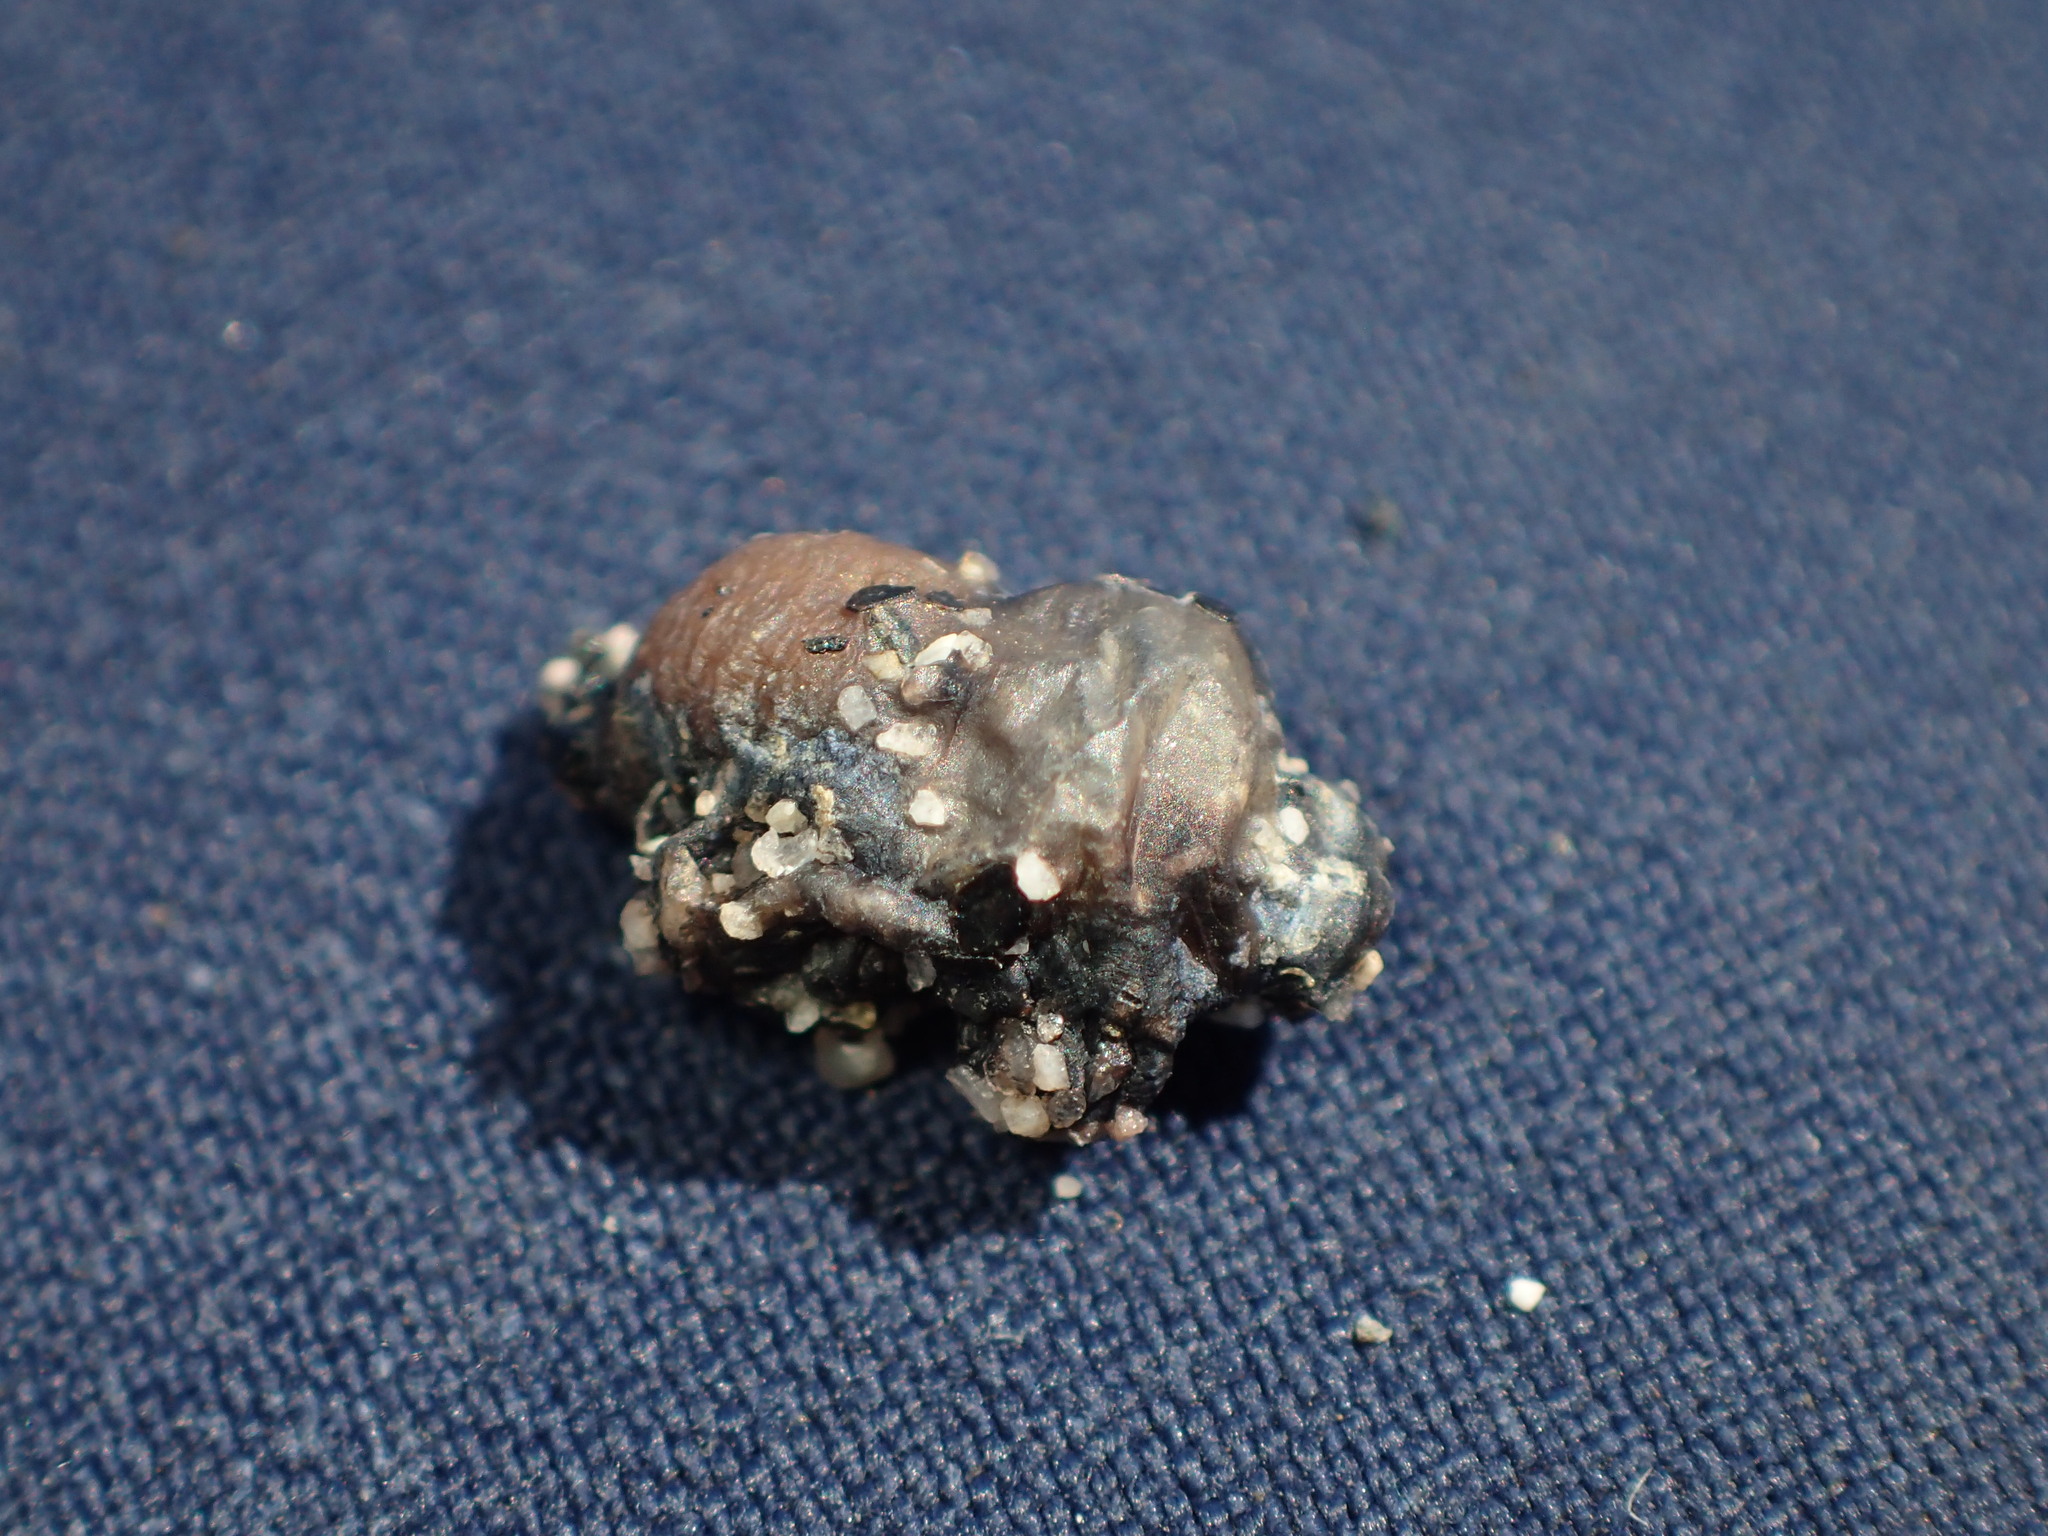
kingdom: Animalia
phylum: Mollusca
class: Gastropoda
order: Nudibranchia
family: Glaucidae
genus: Glaucus
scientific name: Glaucus atlanticus
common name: Purple ocean slug
